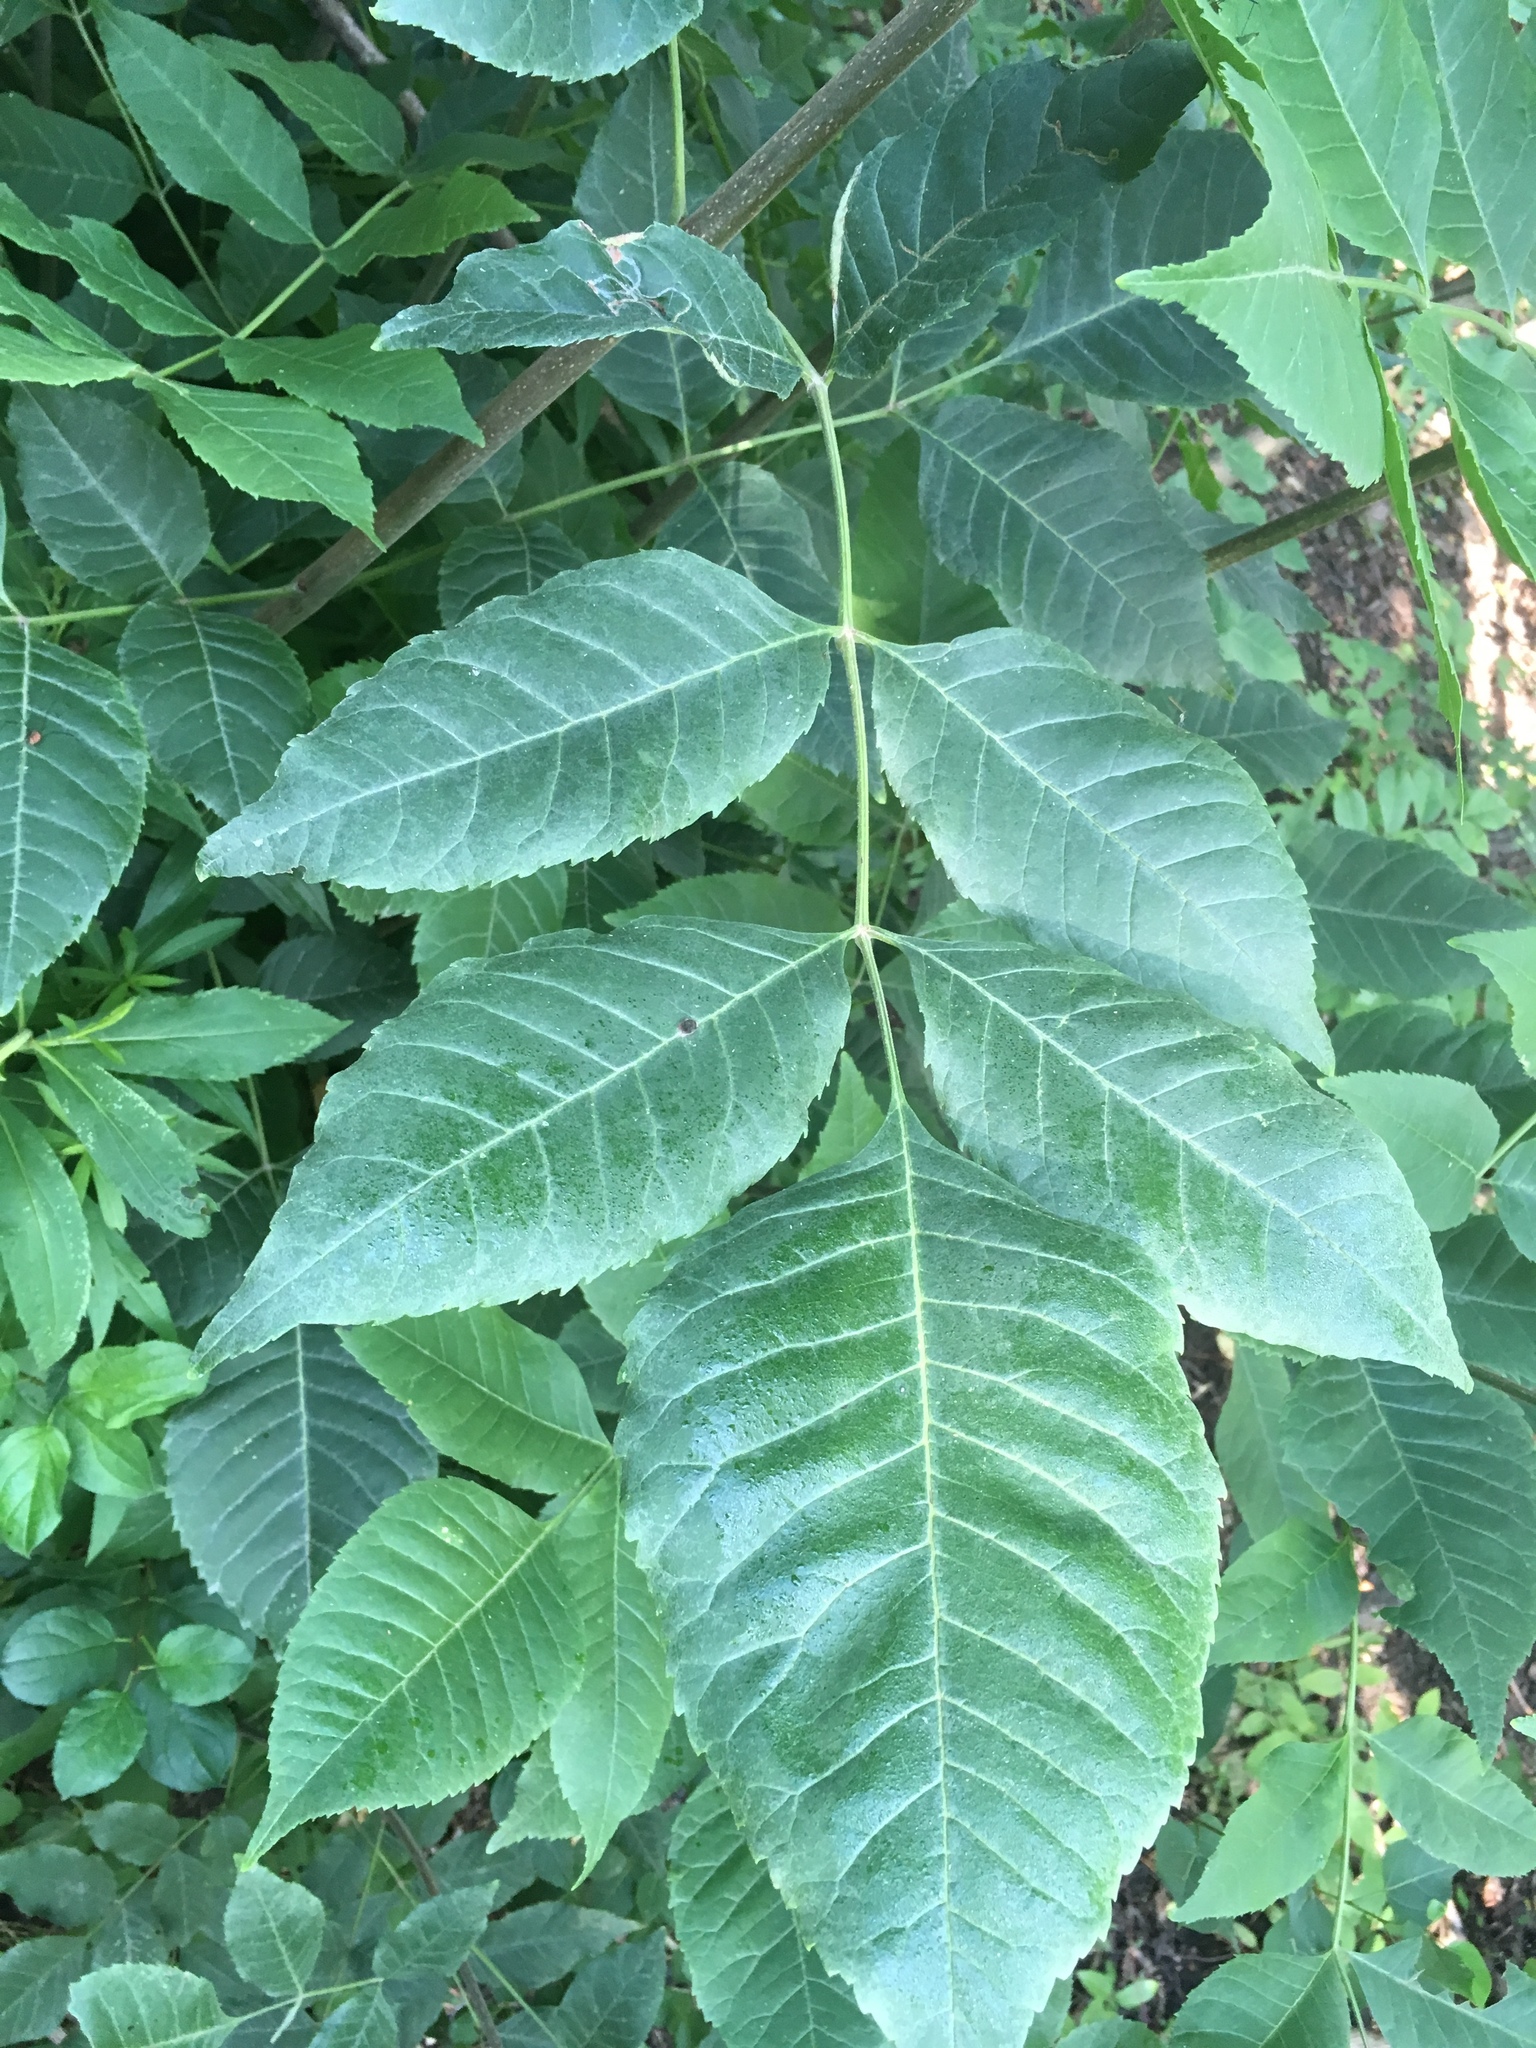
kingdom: Plantae
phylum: Tracheophyta
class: Magnoliopsida
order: Lamiales
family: Oleaceae
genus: Fraxinus
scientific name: Fraxinus pennsylvanica
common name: Green ash
